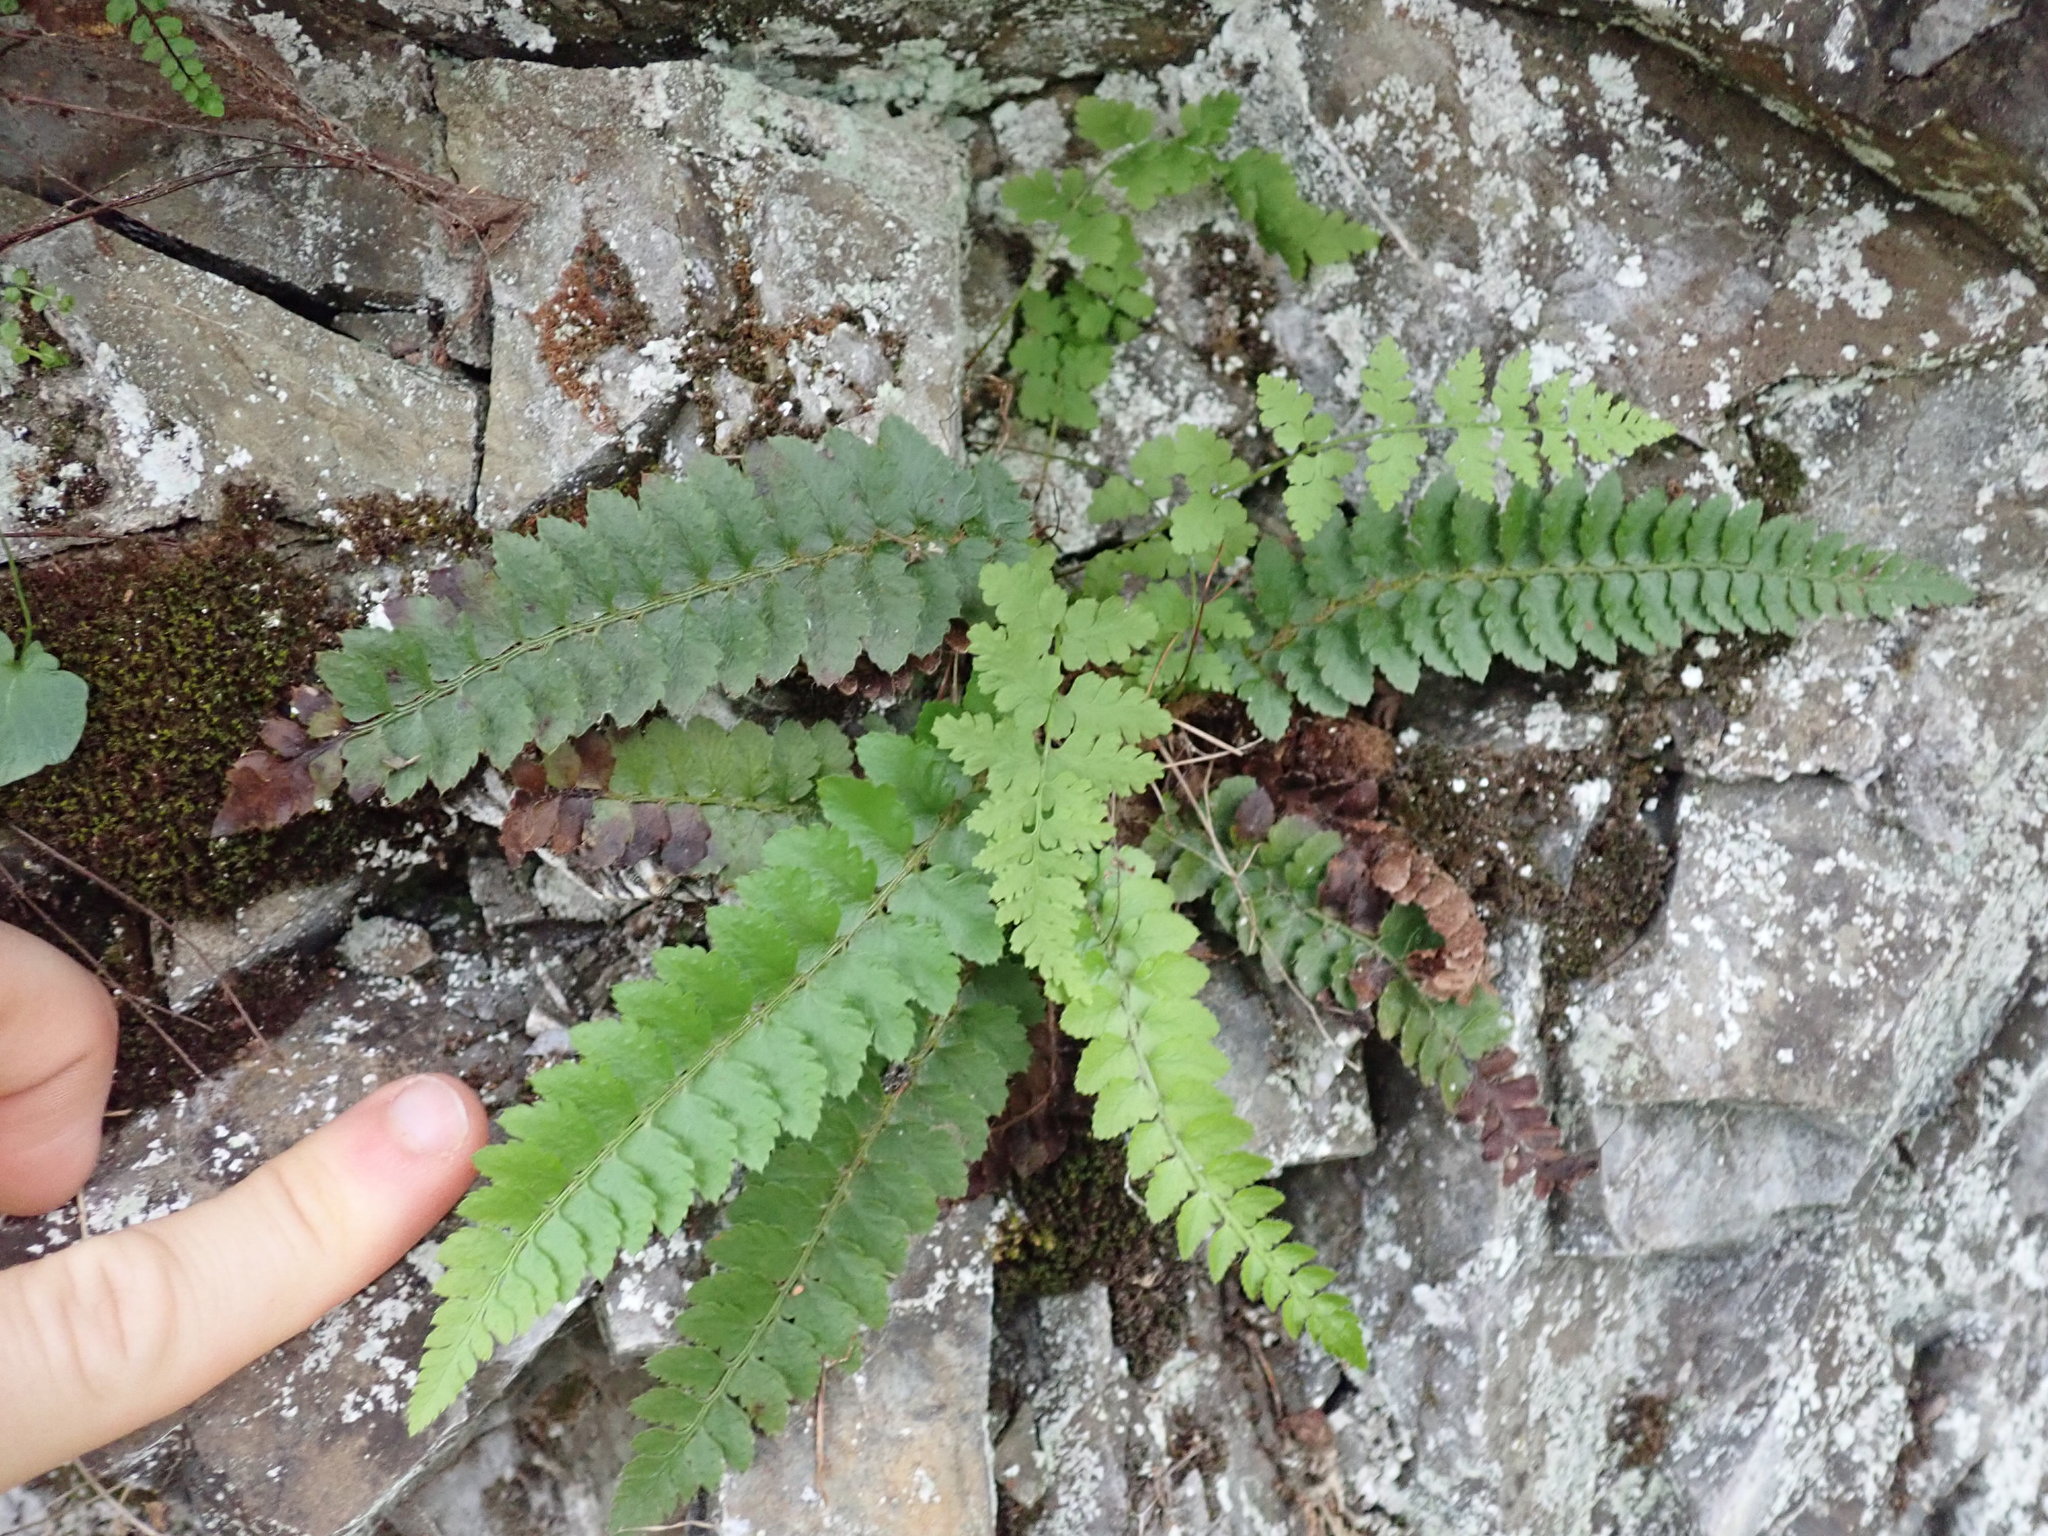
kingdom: Plantae
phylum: Tracheophyta
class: Polypodiopsida
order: Polypodiales
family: Dryopteridaceae
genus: Polystichum
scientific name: Polystichum californicum
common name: California sword fern
